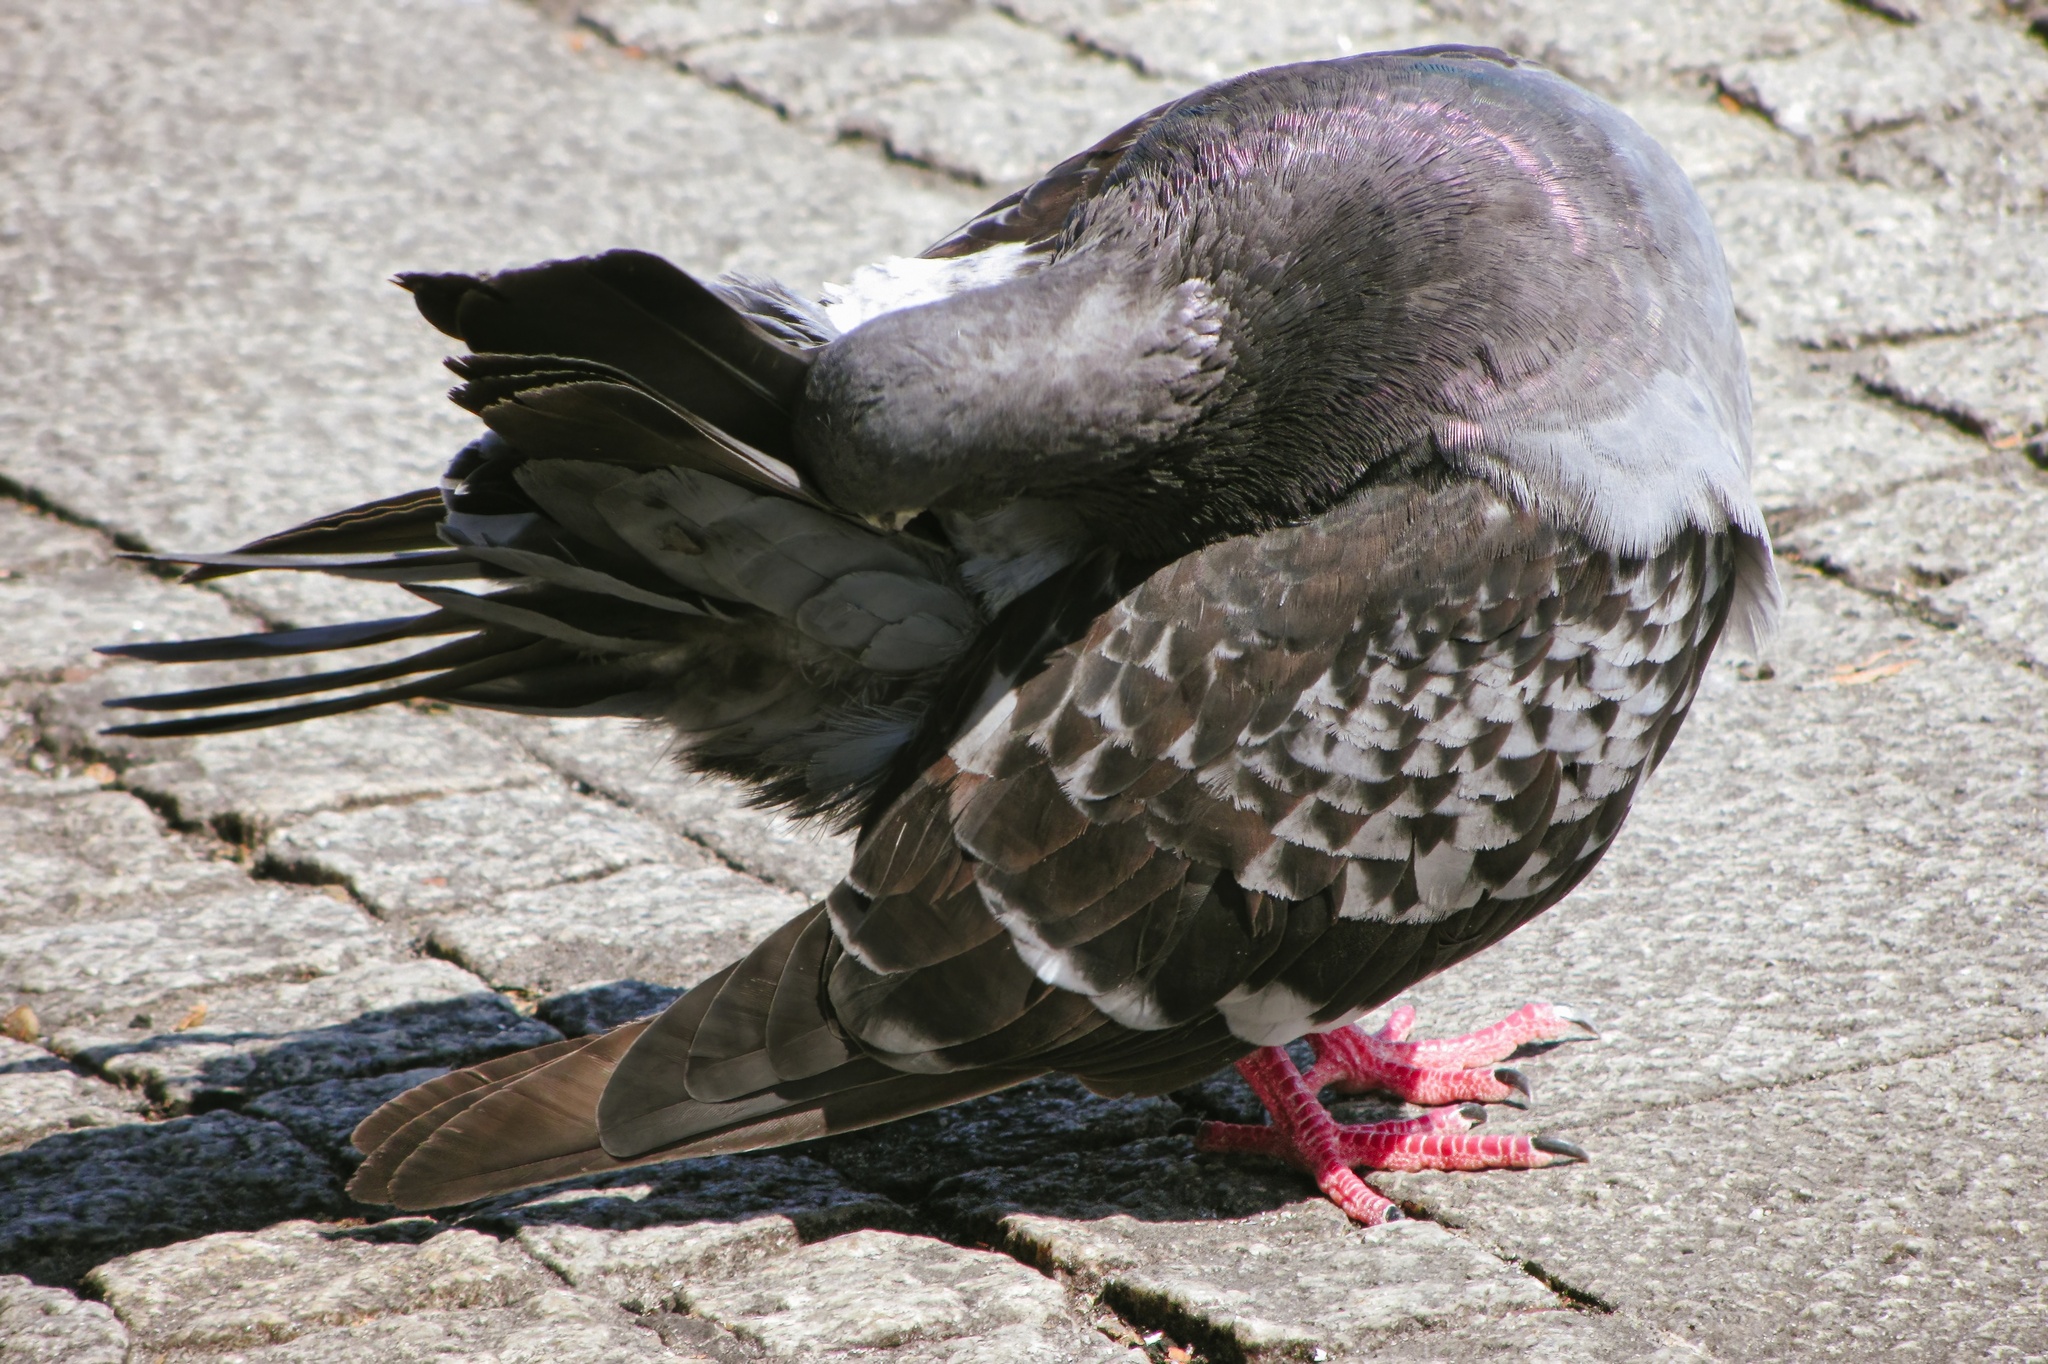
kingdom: Animalia
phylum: Chordata
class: Aves
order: Columbiformes
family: Columbidae
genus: Columba
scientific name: Columba livia
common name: Rock pigeon
